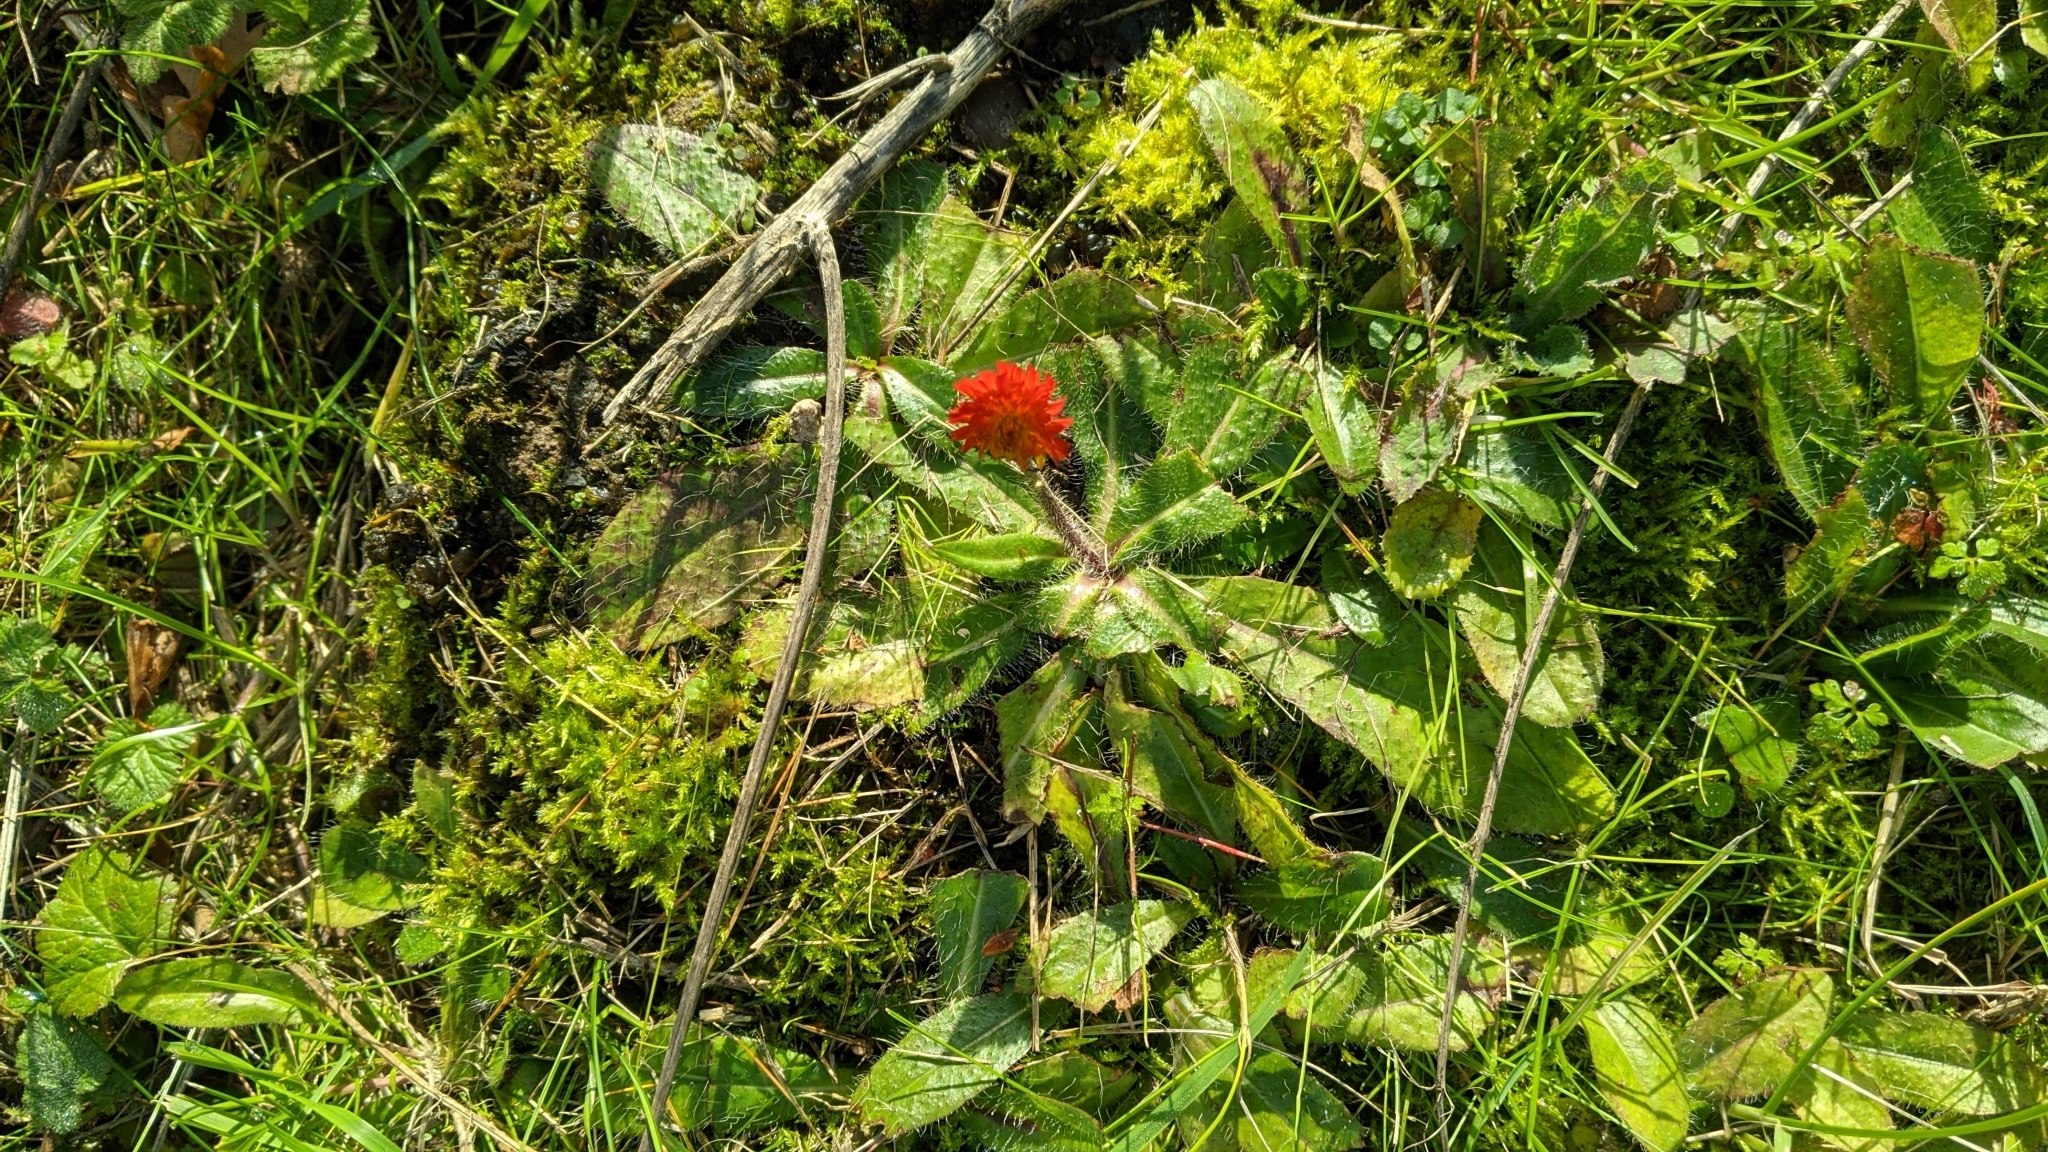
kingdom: Plantae
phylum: Tracheophyta
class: Magnoliopsida
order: Asterales
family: Asteraceae
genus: Pilosella
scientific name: Pilosella aurantiaca
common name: Fox-and-cubs
